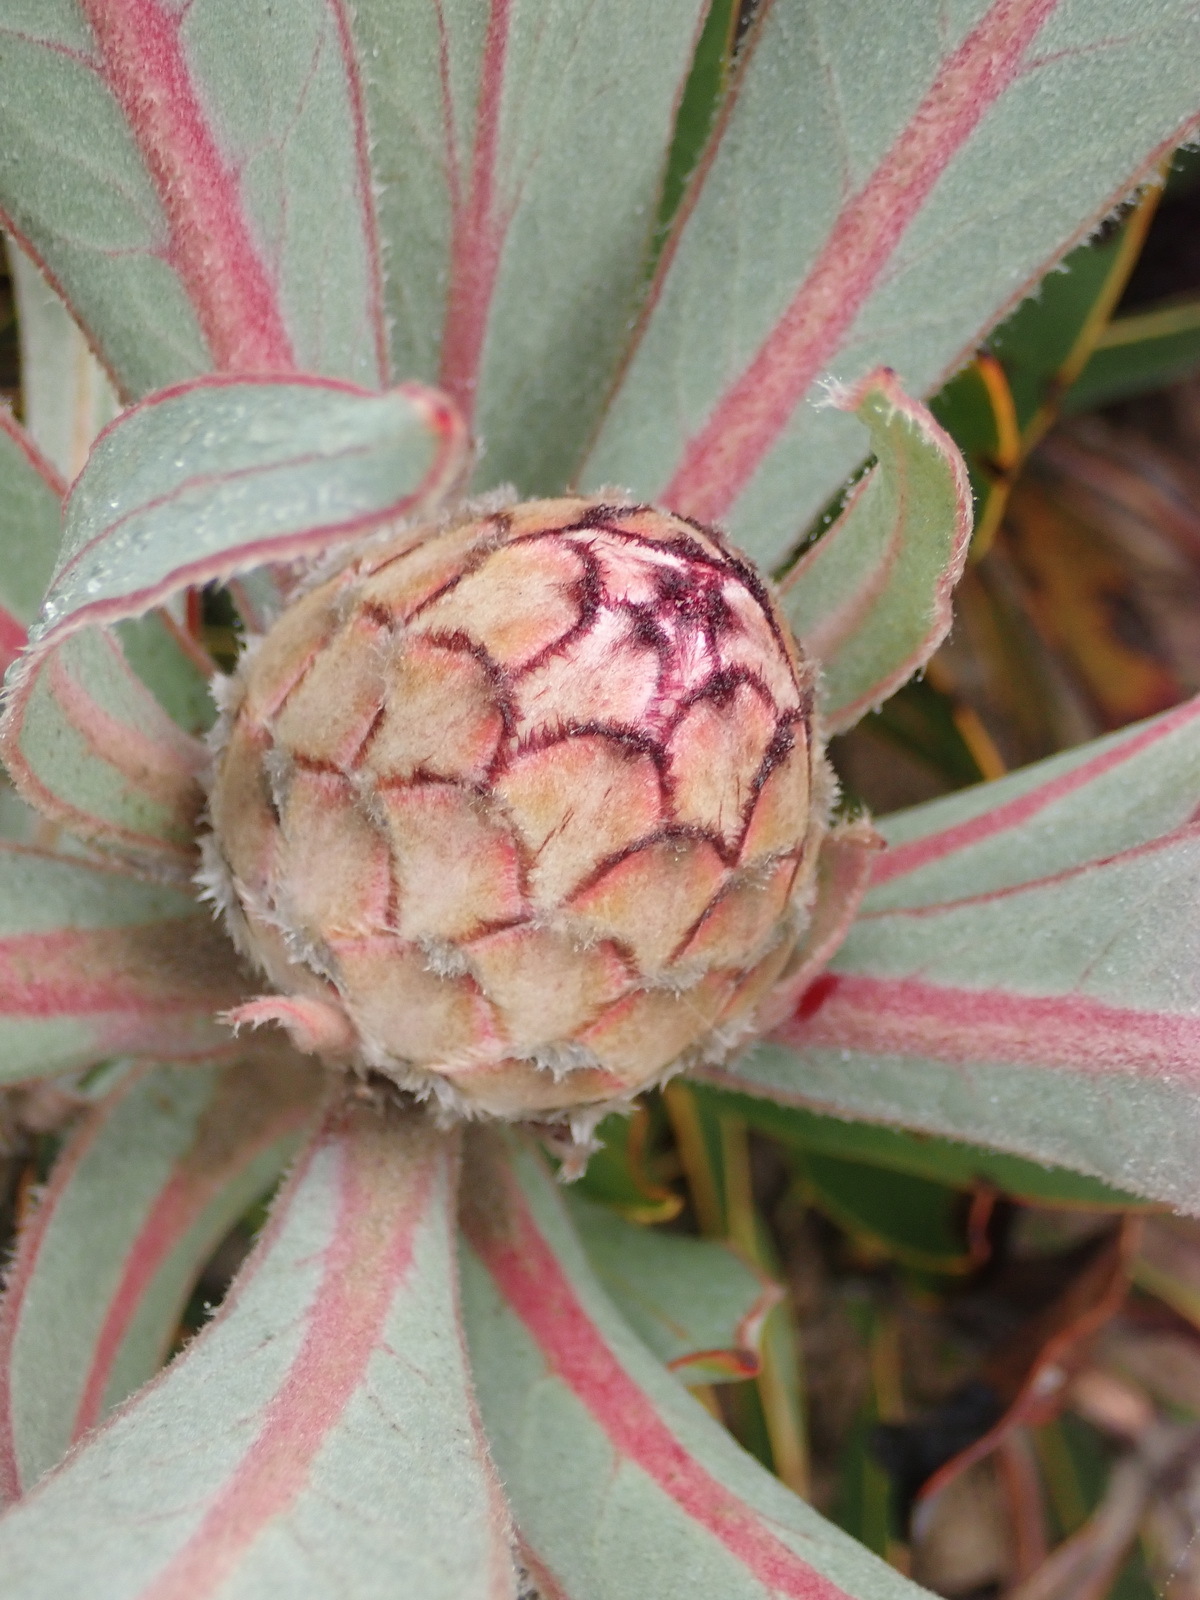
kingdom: Plantae
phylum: Tracheophyta
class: Magnoliopsida
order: Proteales
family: Proteaceae
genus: Protea
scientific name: Protea lorifolia
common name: Strap-leaved protea
